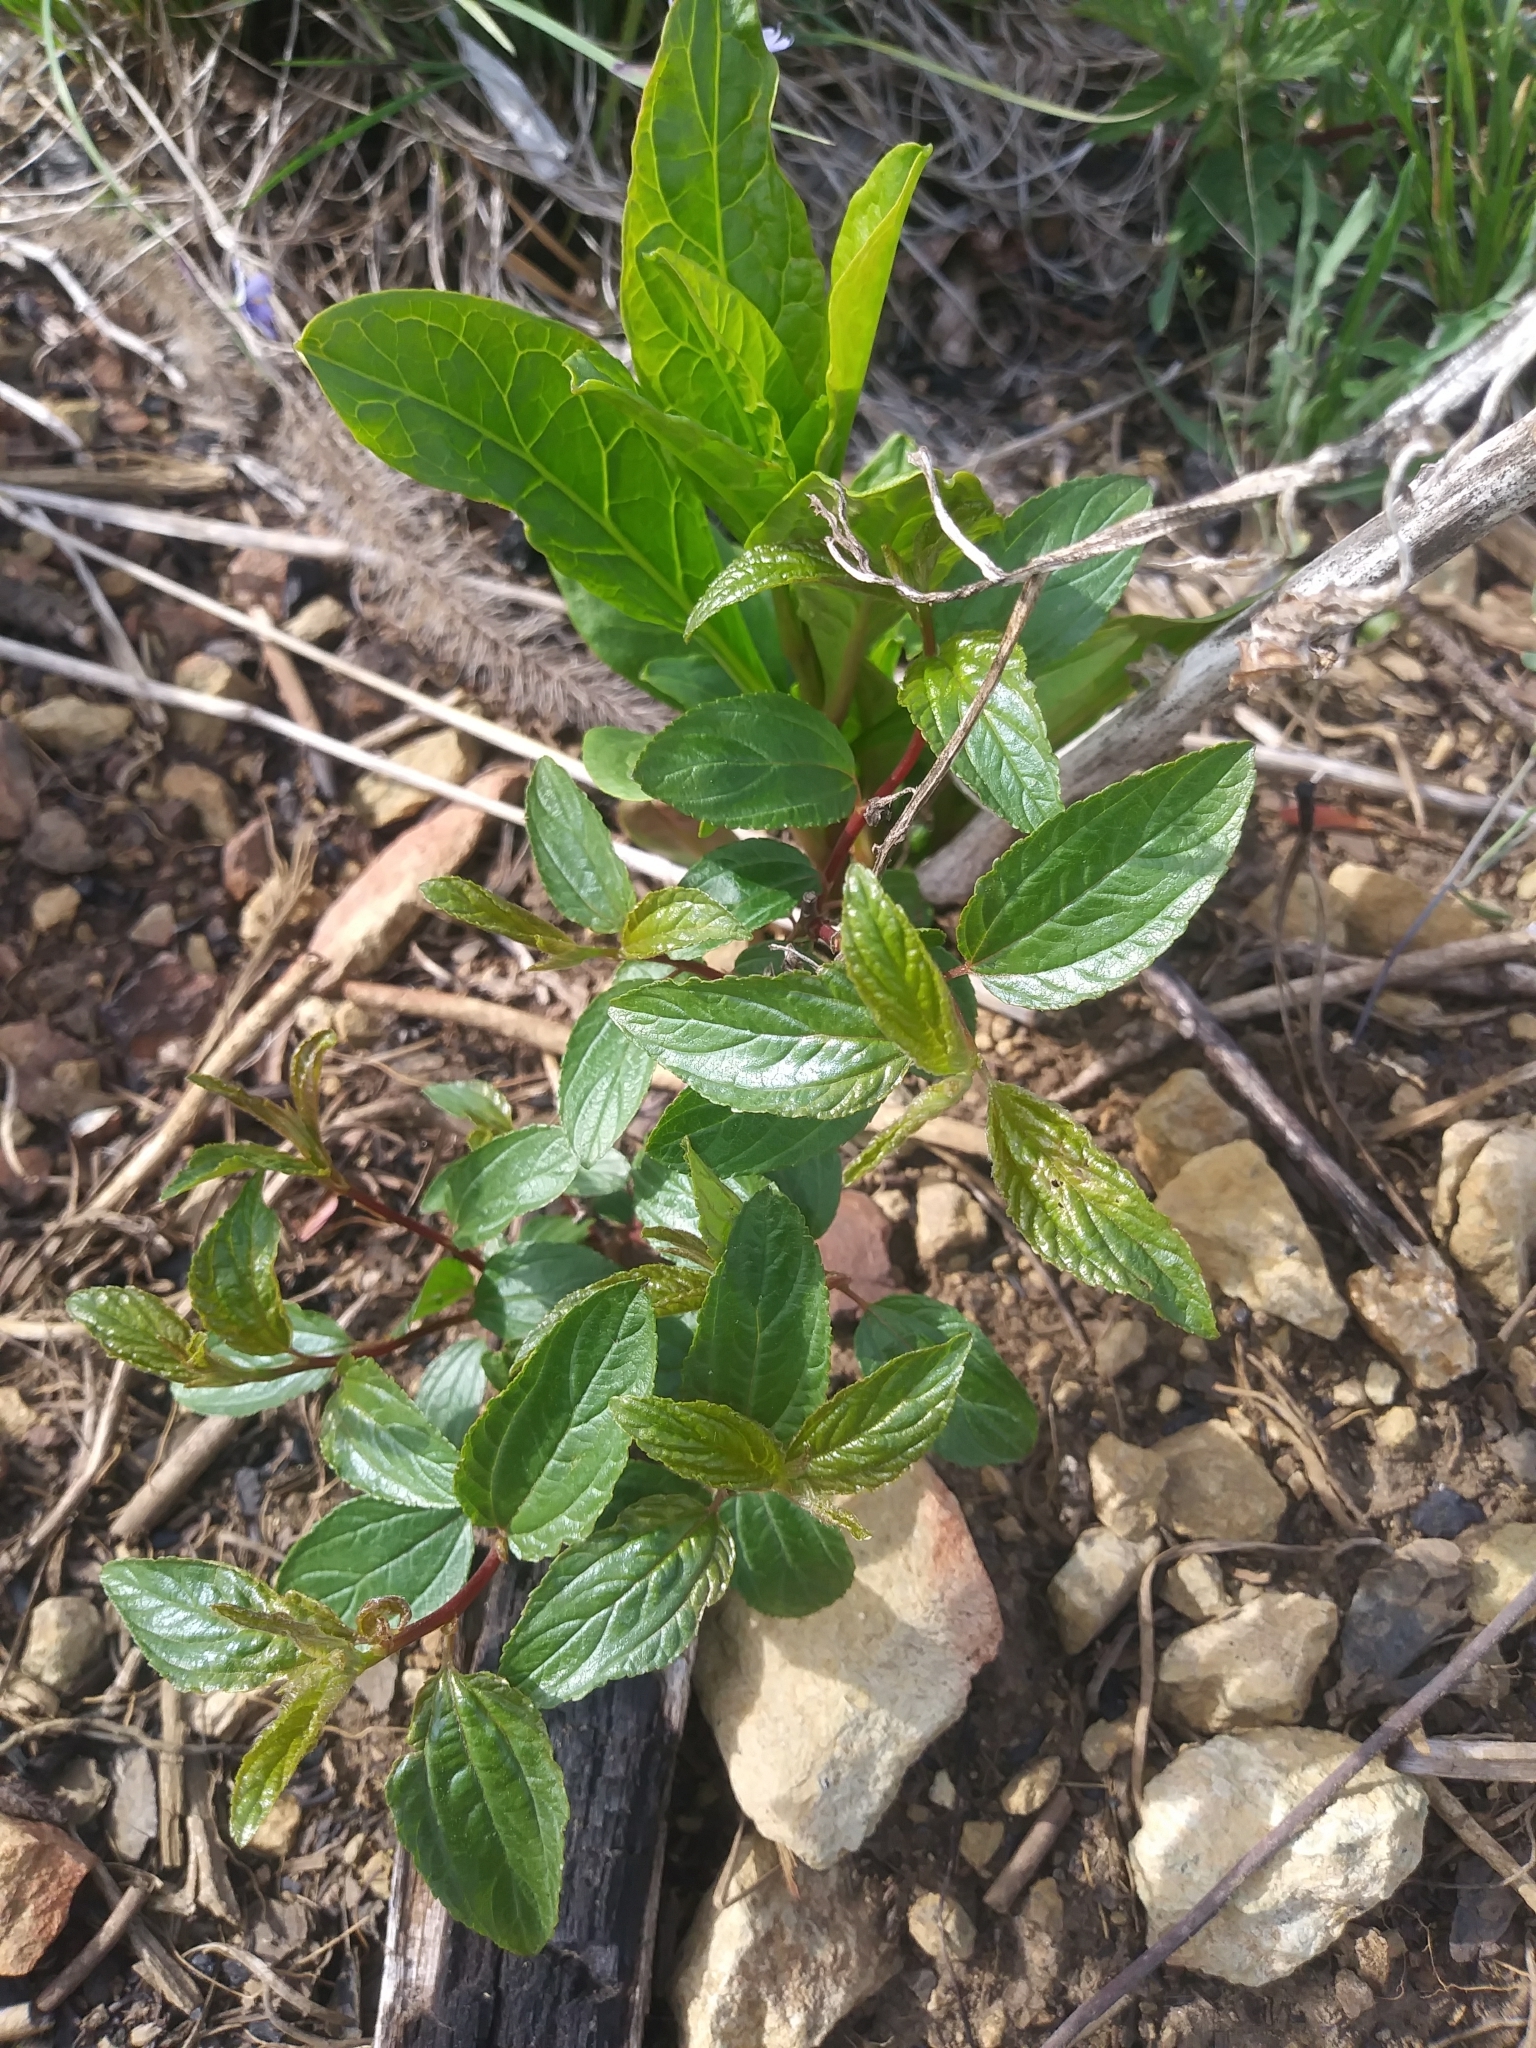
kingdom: Plantae
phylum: Tracheophyta
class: Magnoliopsida
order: Rosales
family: Rhamnaceae
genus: Ceanothus
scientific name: Ceanothus americanus
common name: Redroot
